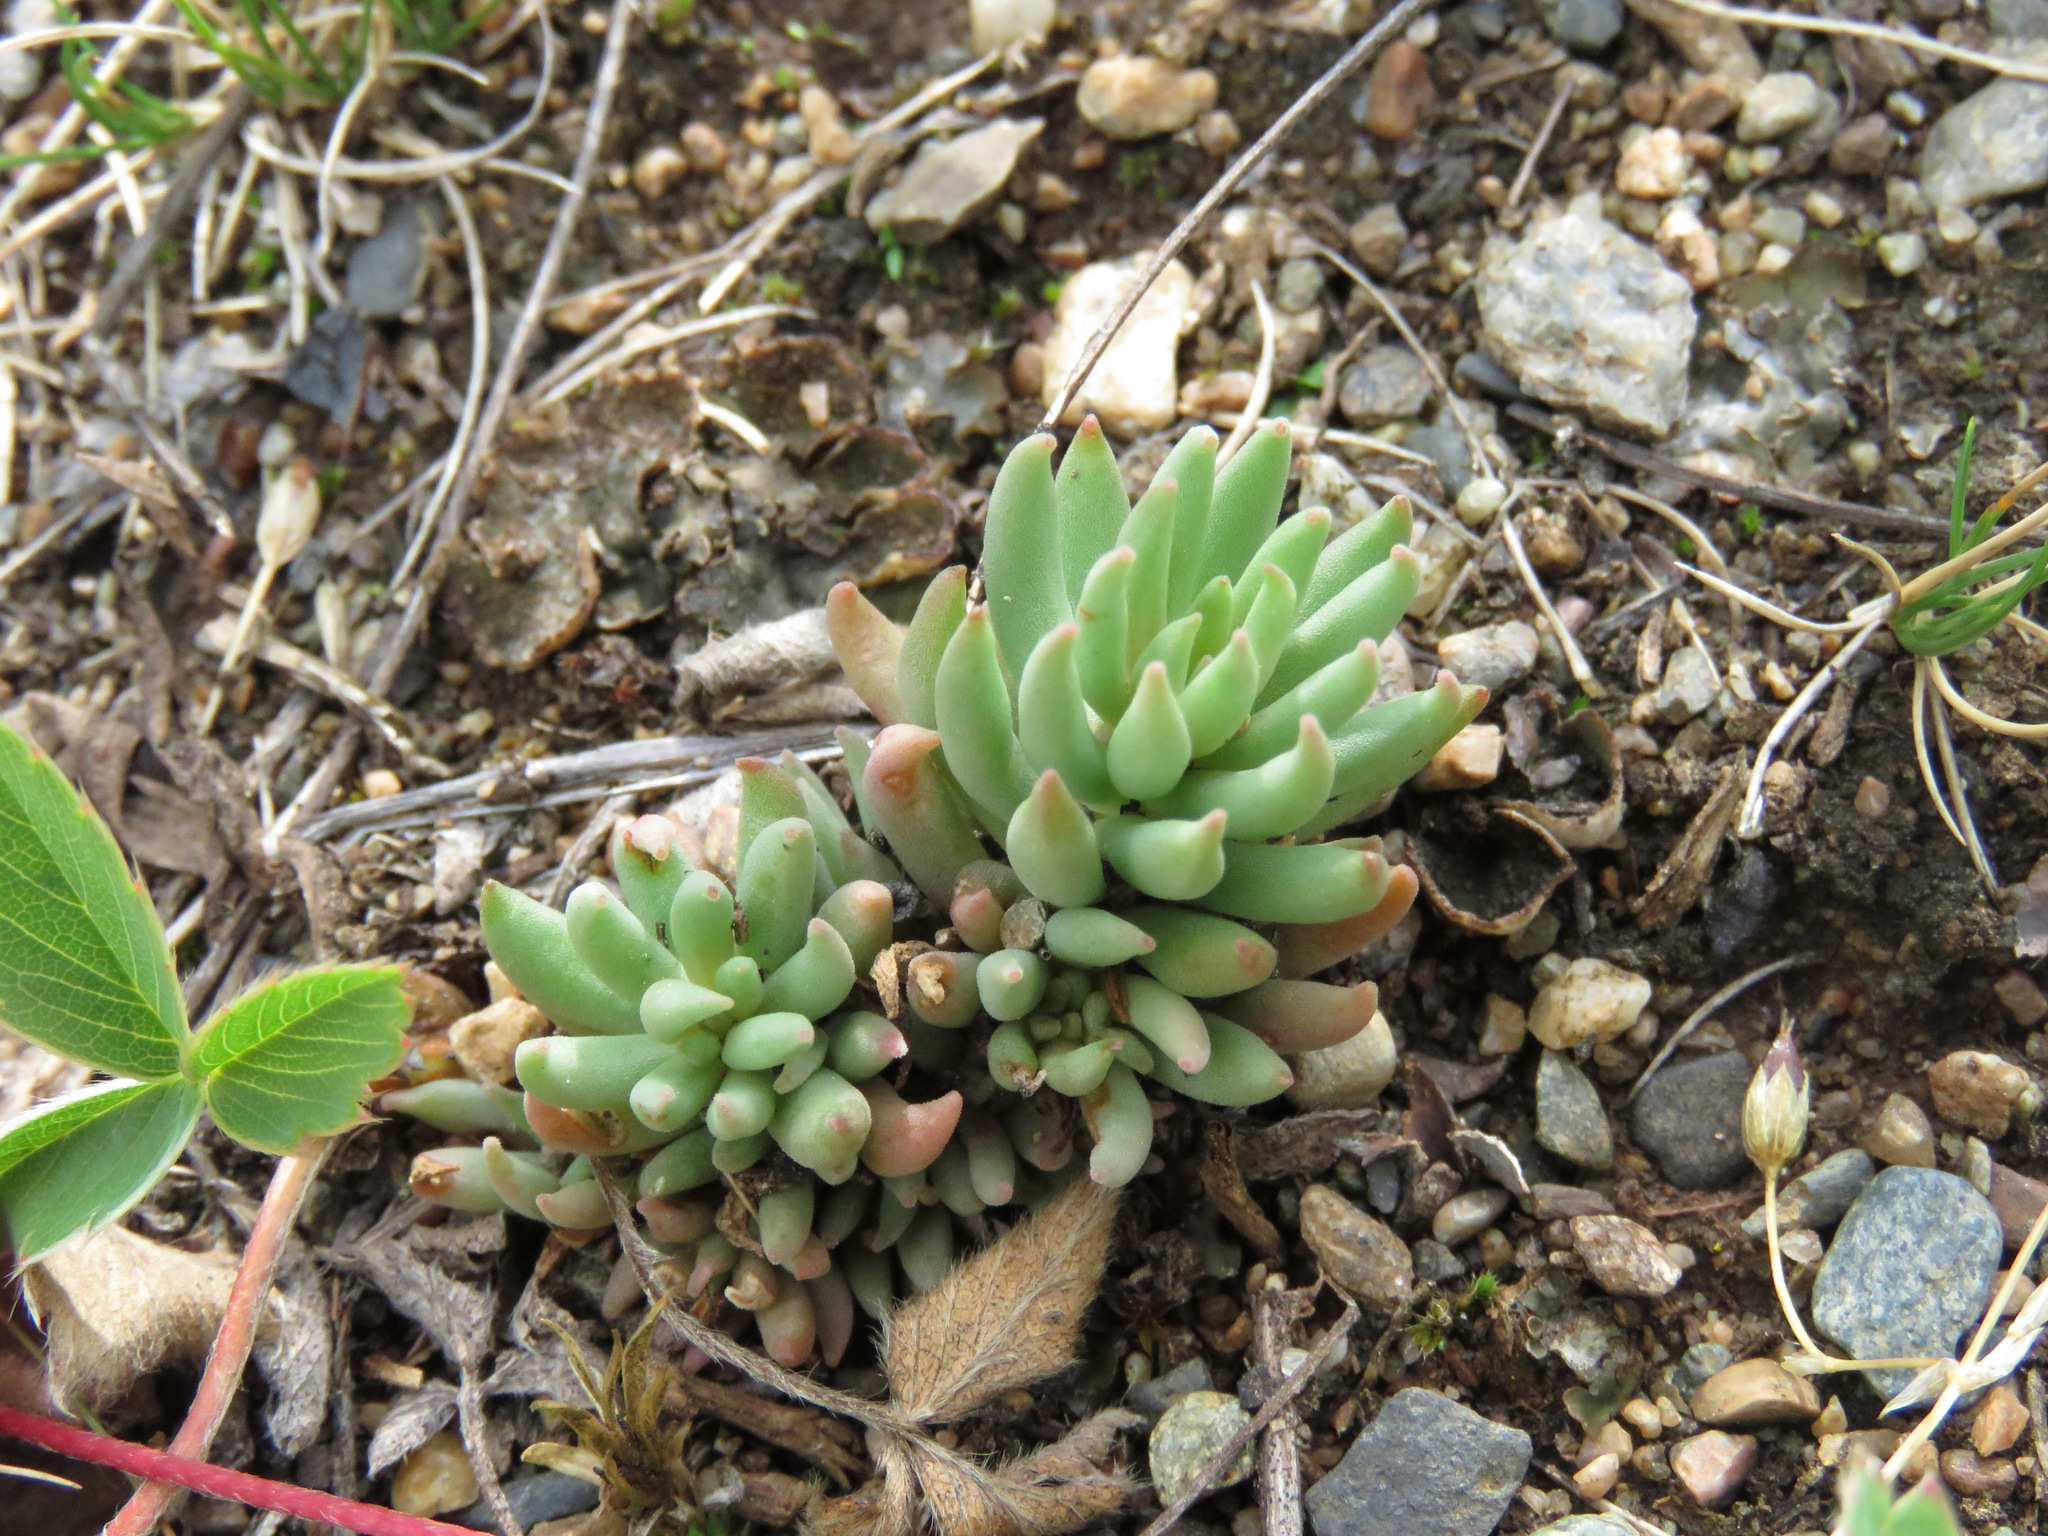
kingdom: Plantae
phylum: Tracheophyta
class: Magnoliopsida
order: Saxifragales
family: Crassulaceae
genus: Sedum
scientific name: Sedum lanceolatum
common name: Common stonecrop
